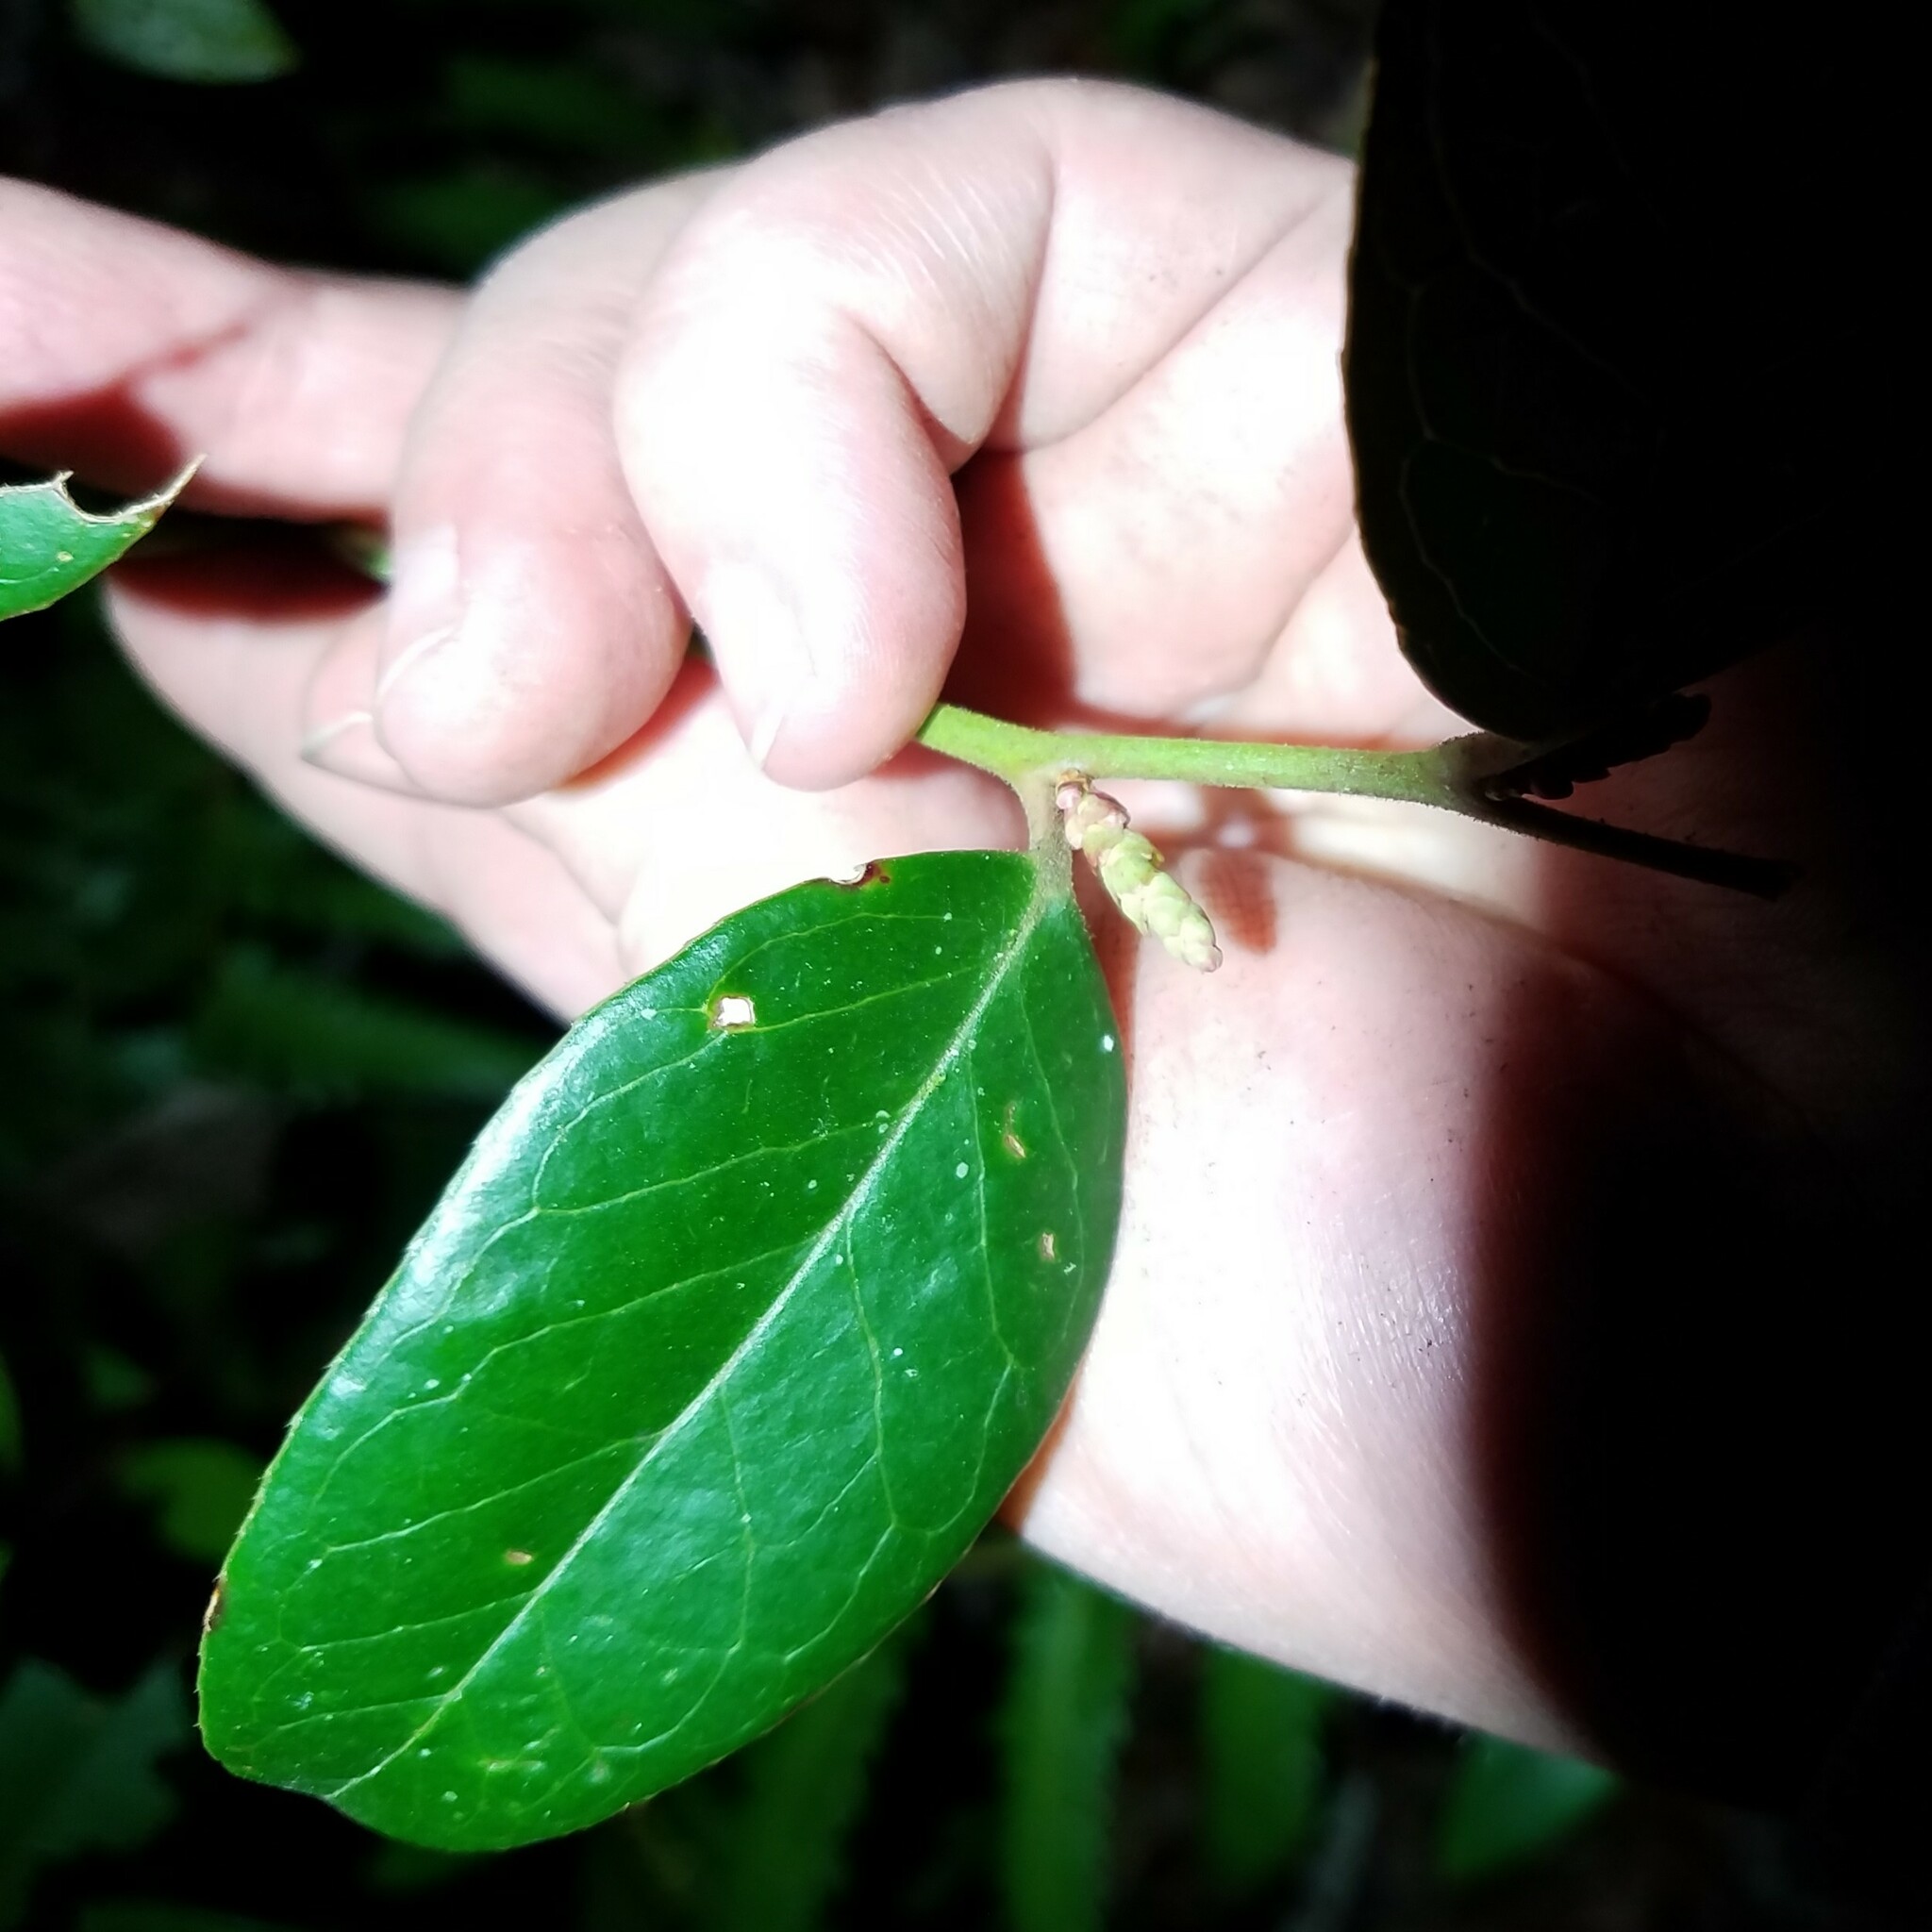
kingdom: Plantae
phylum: Tracheophyta
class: Magnoliopsida
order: Ericales
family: Ericaceae
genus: Leucothoe
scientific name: Leucothoe axillaris
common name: Leucothoe
